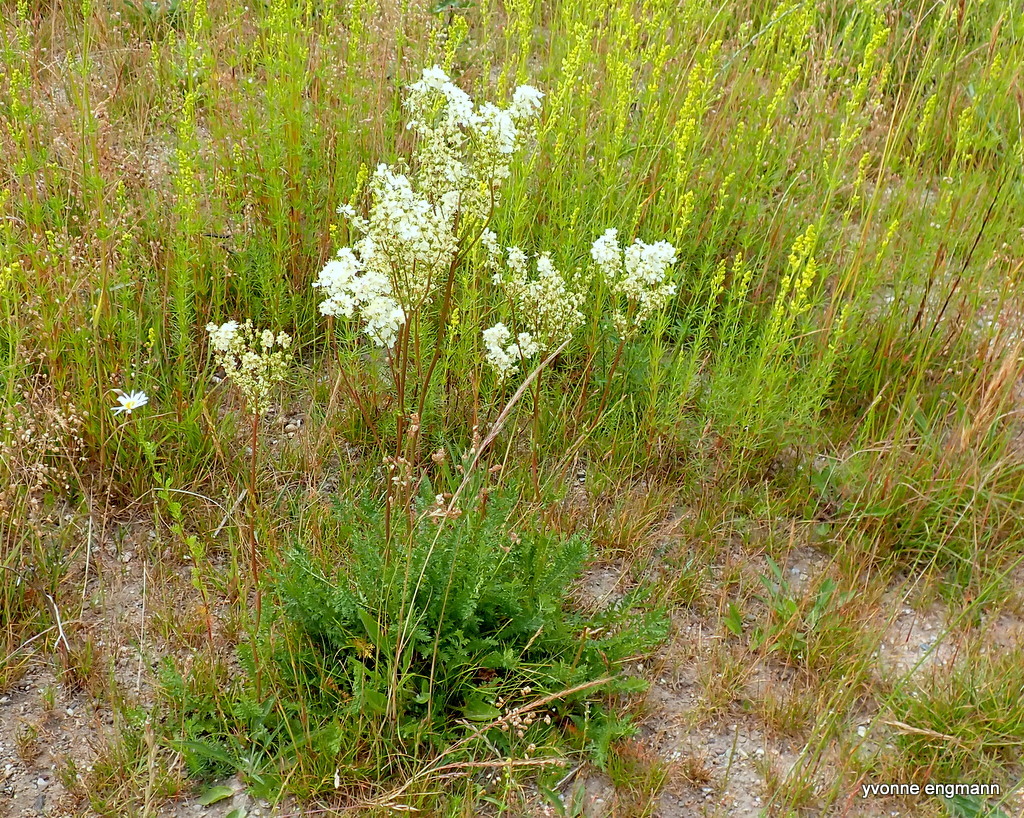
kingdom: Plantae
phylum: Tracheophyta
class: Magnoliopsida
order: Rosales
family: Rosaceae
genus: Filipendula
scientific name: Filipendula vulgaris
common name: Dropwort
